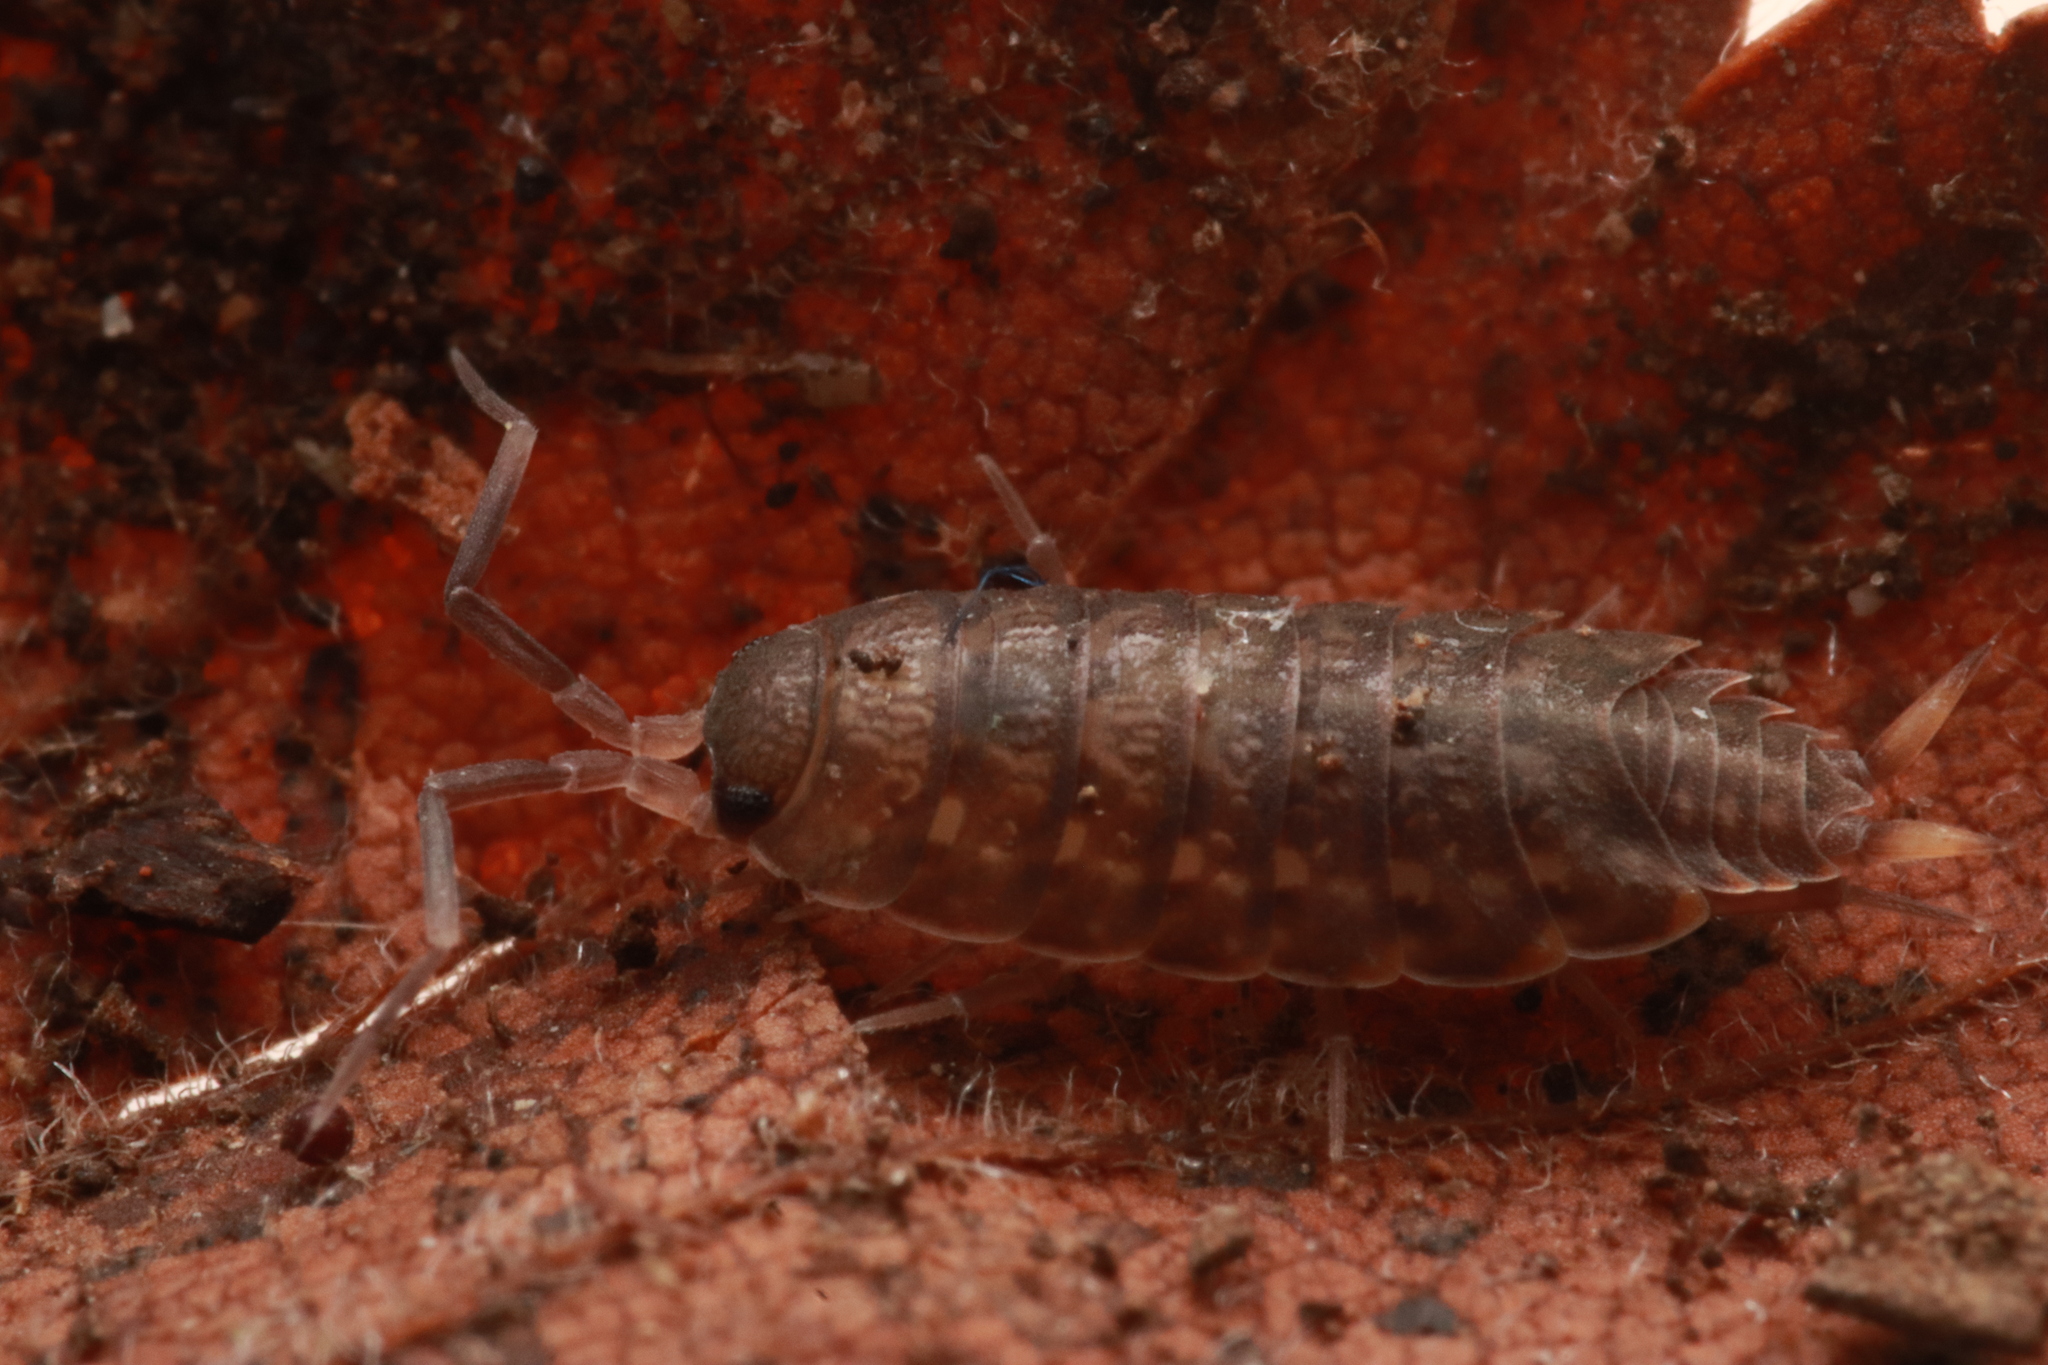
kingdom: Animalia
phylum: Arthropoda
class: Malacostraca
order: Isopoda
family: Agnaridae
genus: Orthometopon
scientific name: Orthometopon planum
